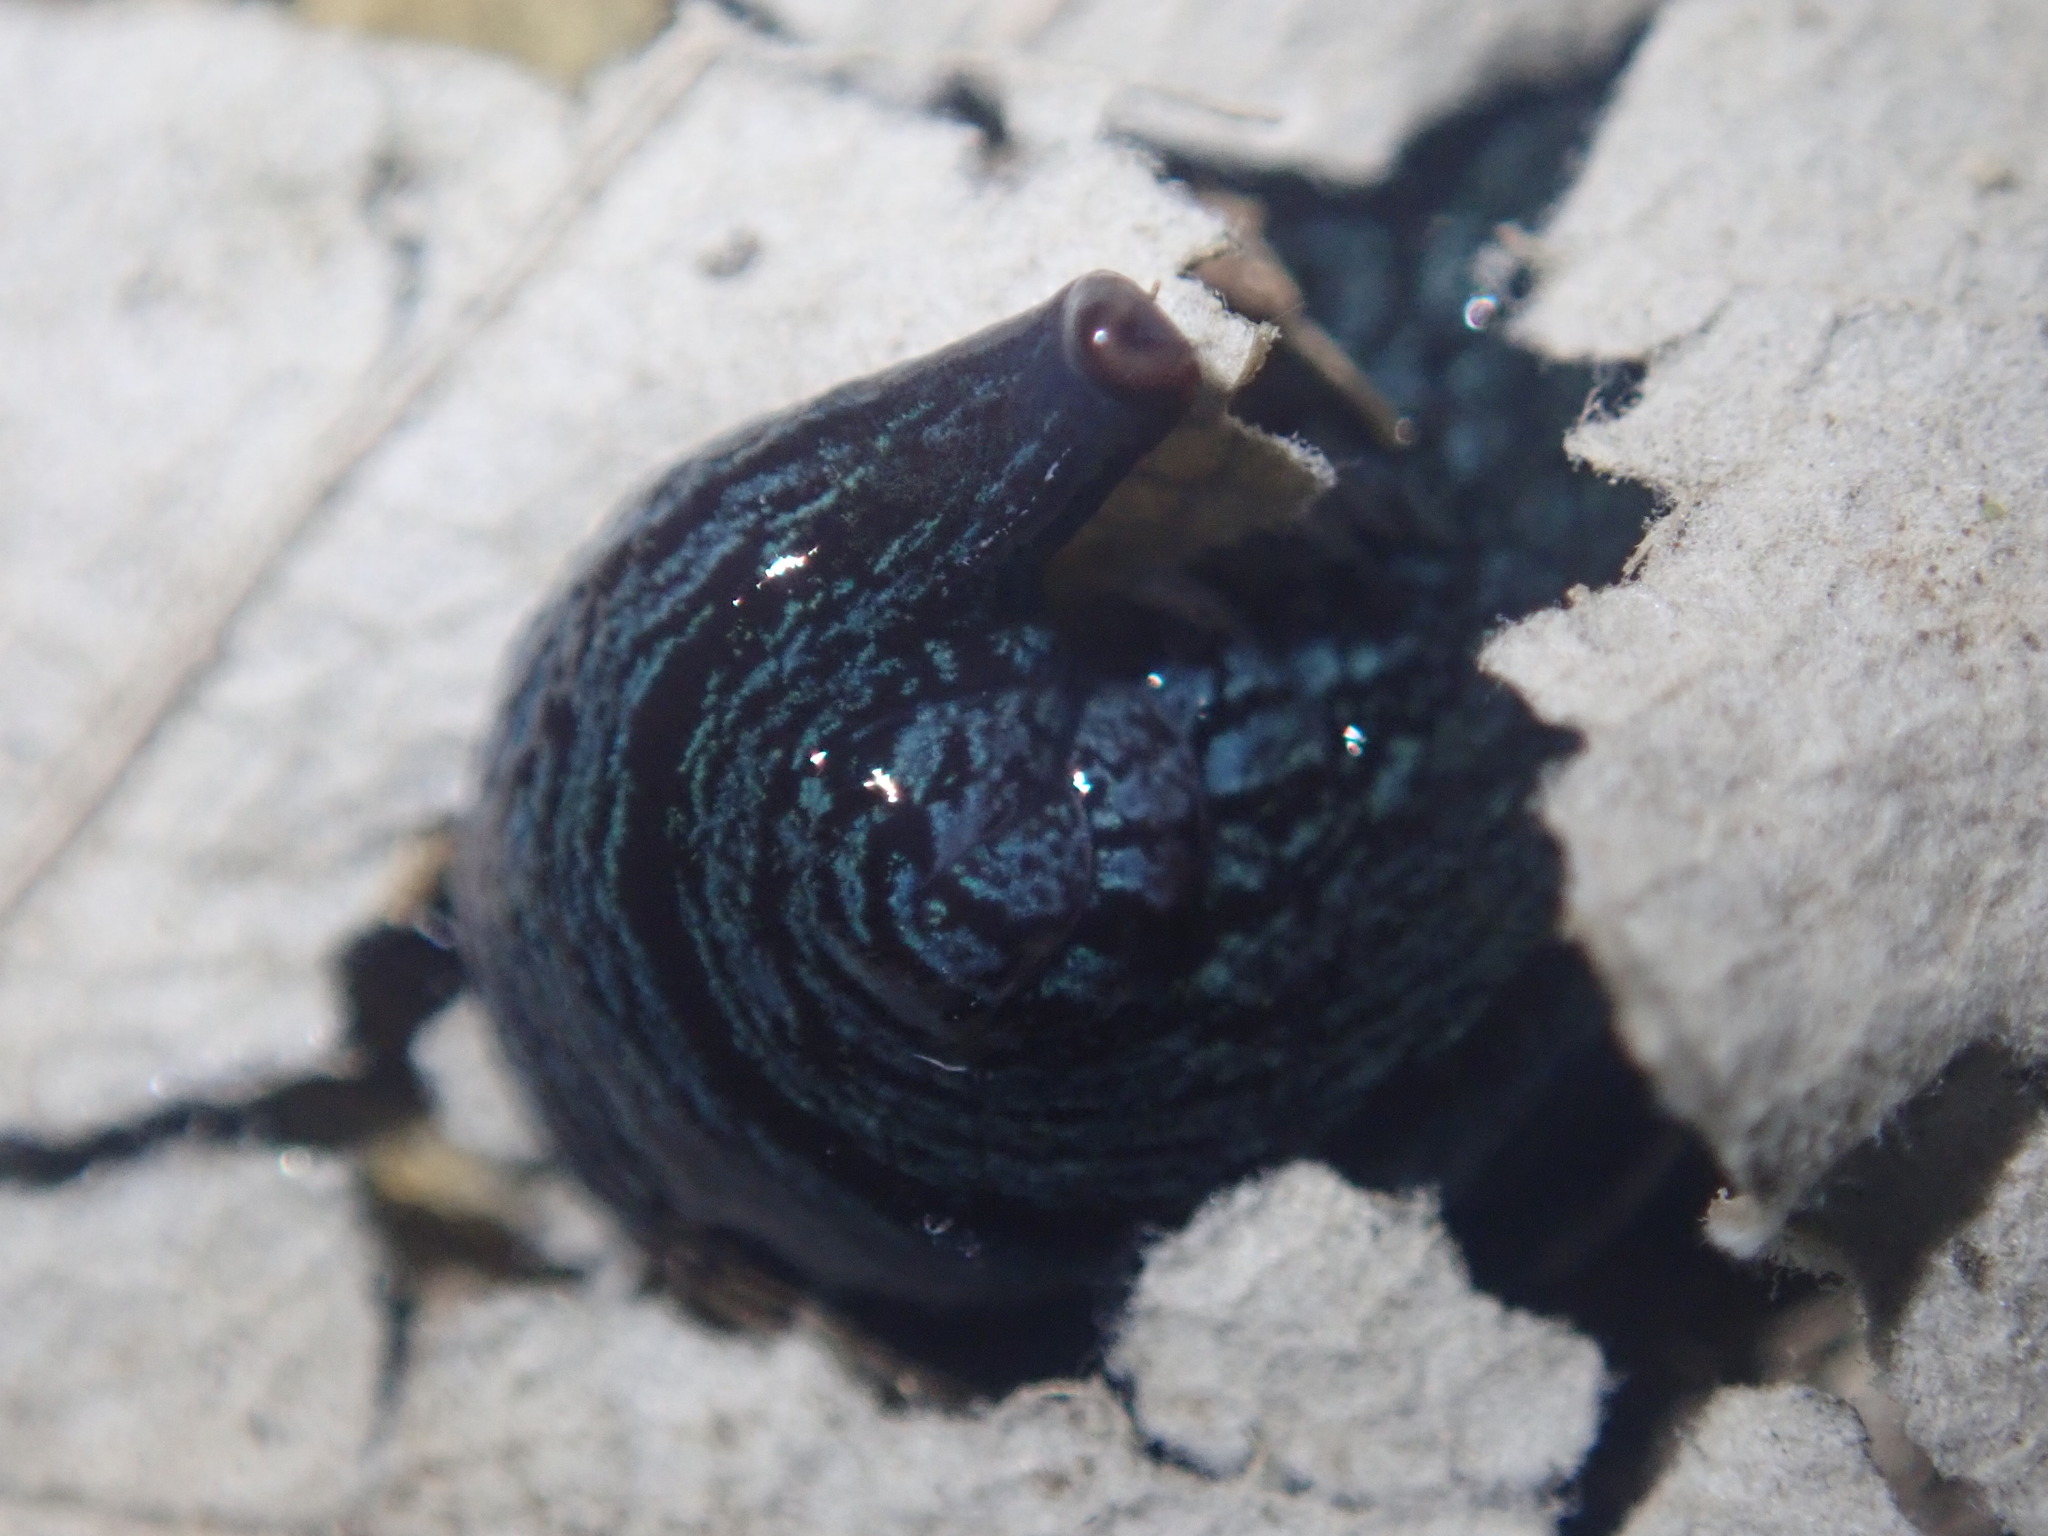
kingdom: Animalia
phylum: Platyhelminthes
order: Tricladida
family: Geoplanidae
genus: Newzealandia
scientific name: Newzealandia
